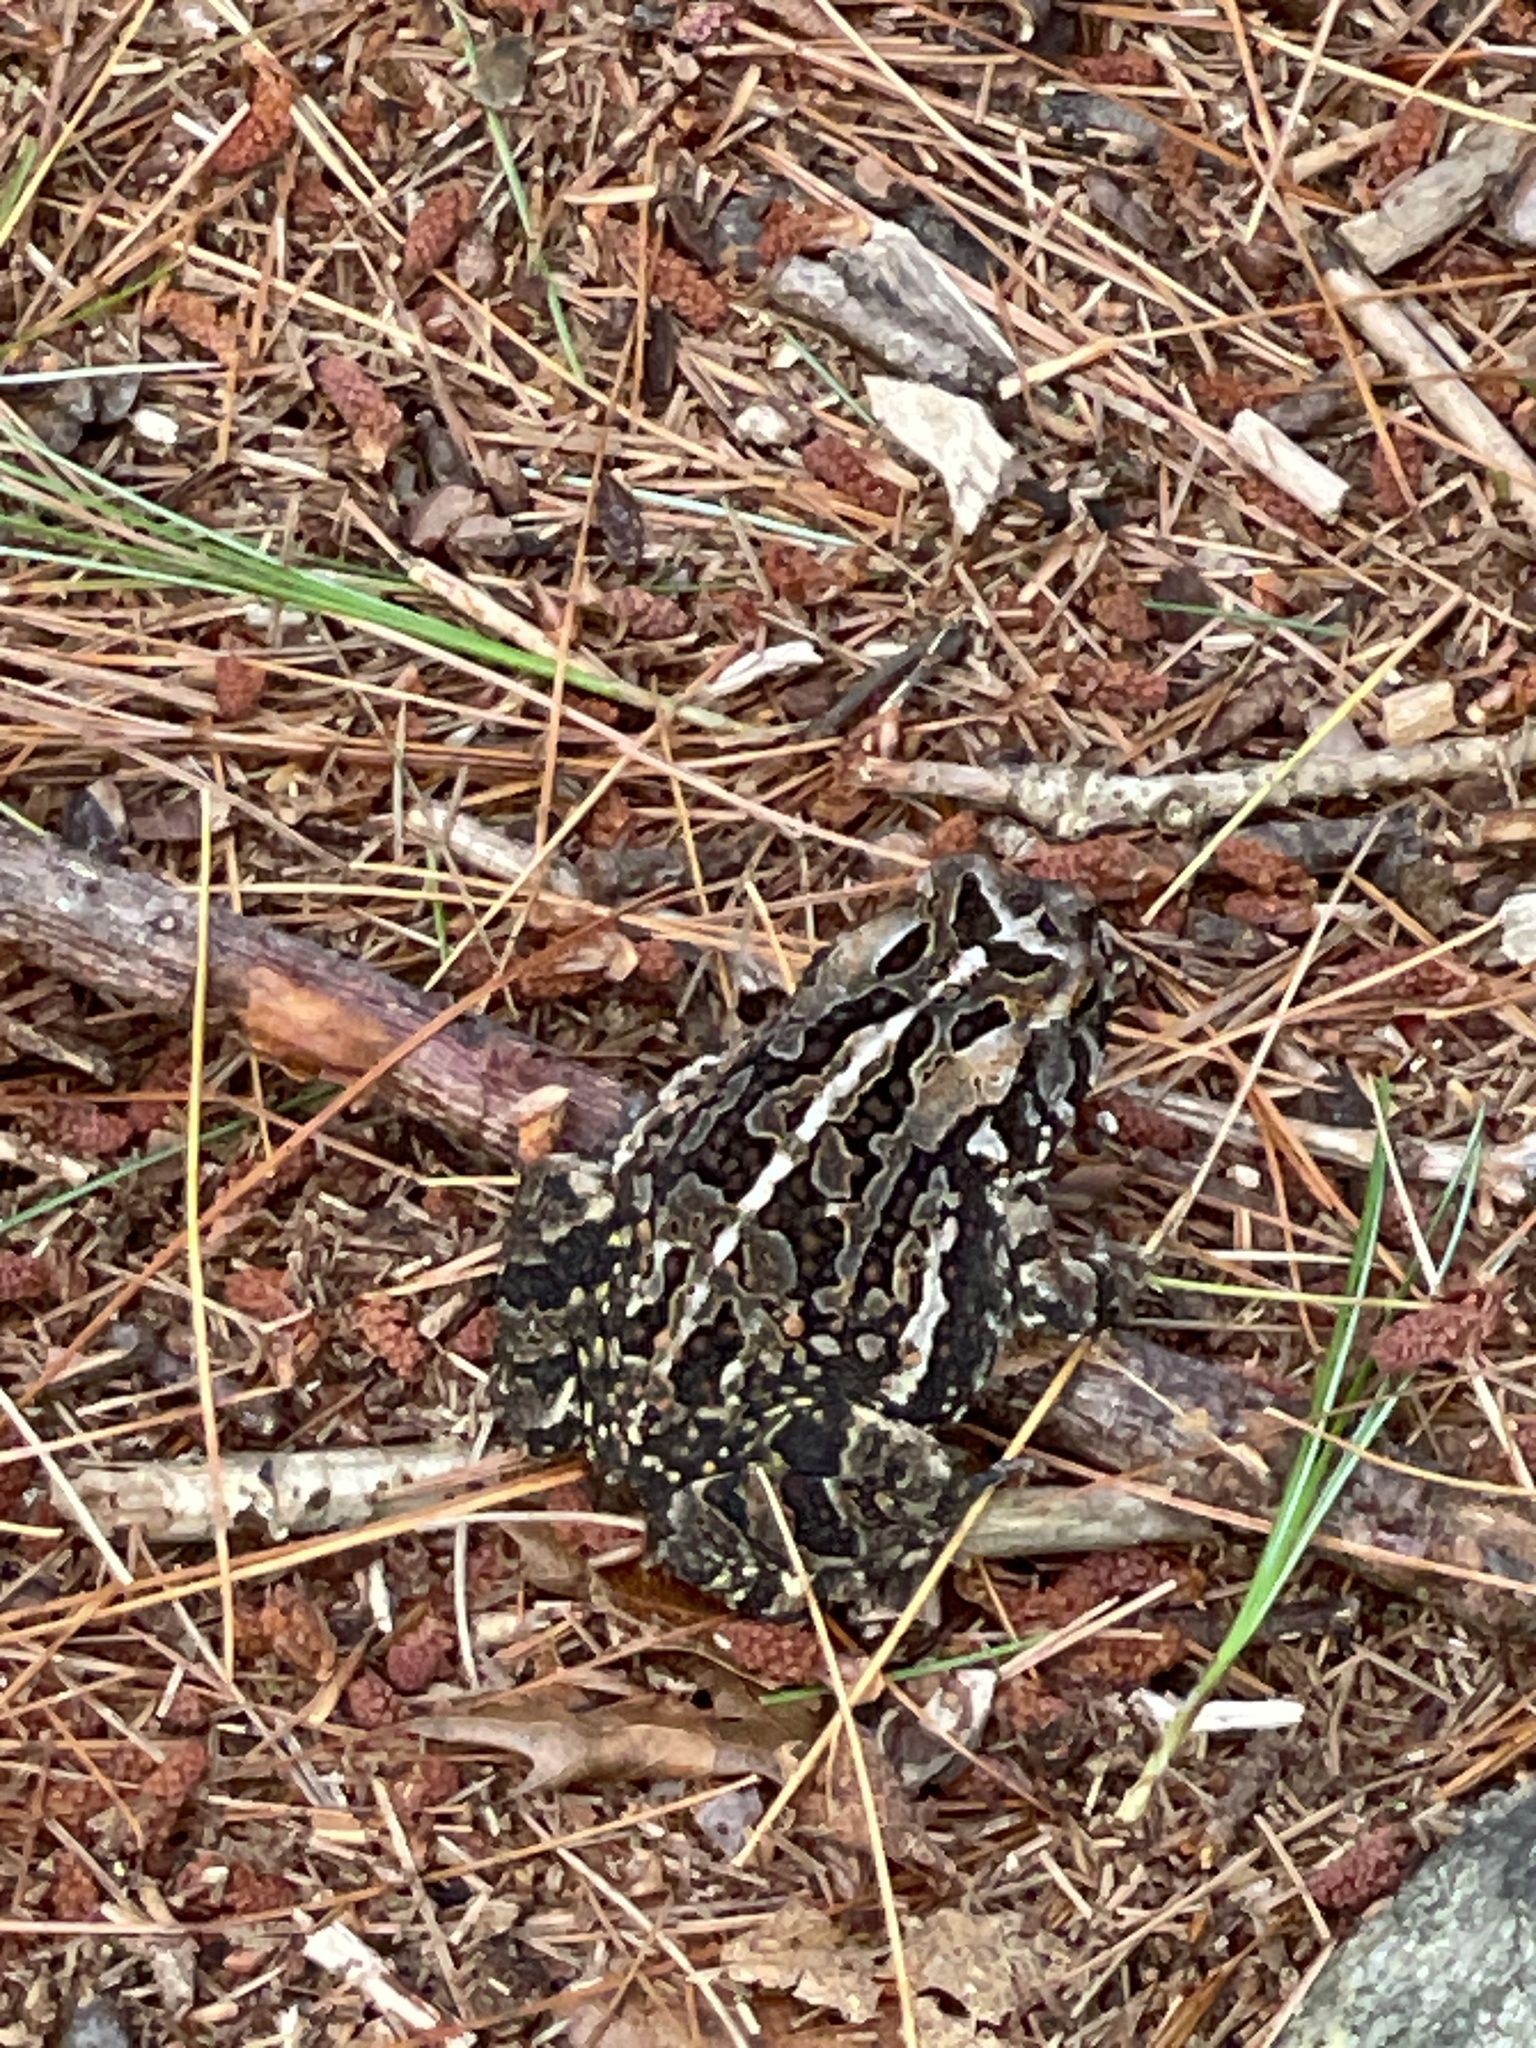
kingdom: Animalia
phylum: Chordata
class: Amphibia
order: Anura
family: Bufonidae
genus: Anaxyrus
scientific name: Anaxyrus fowleri
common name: Fowler's toad
